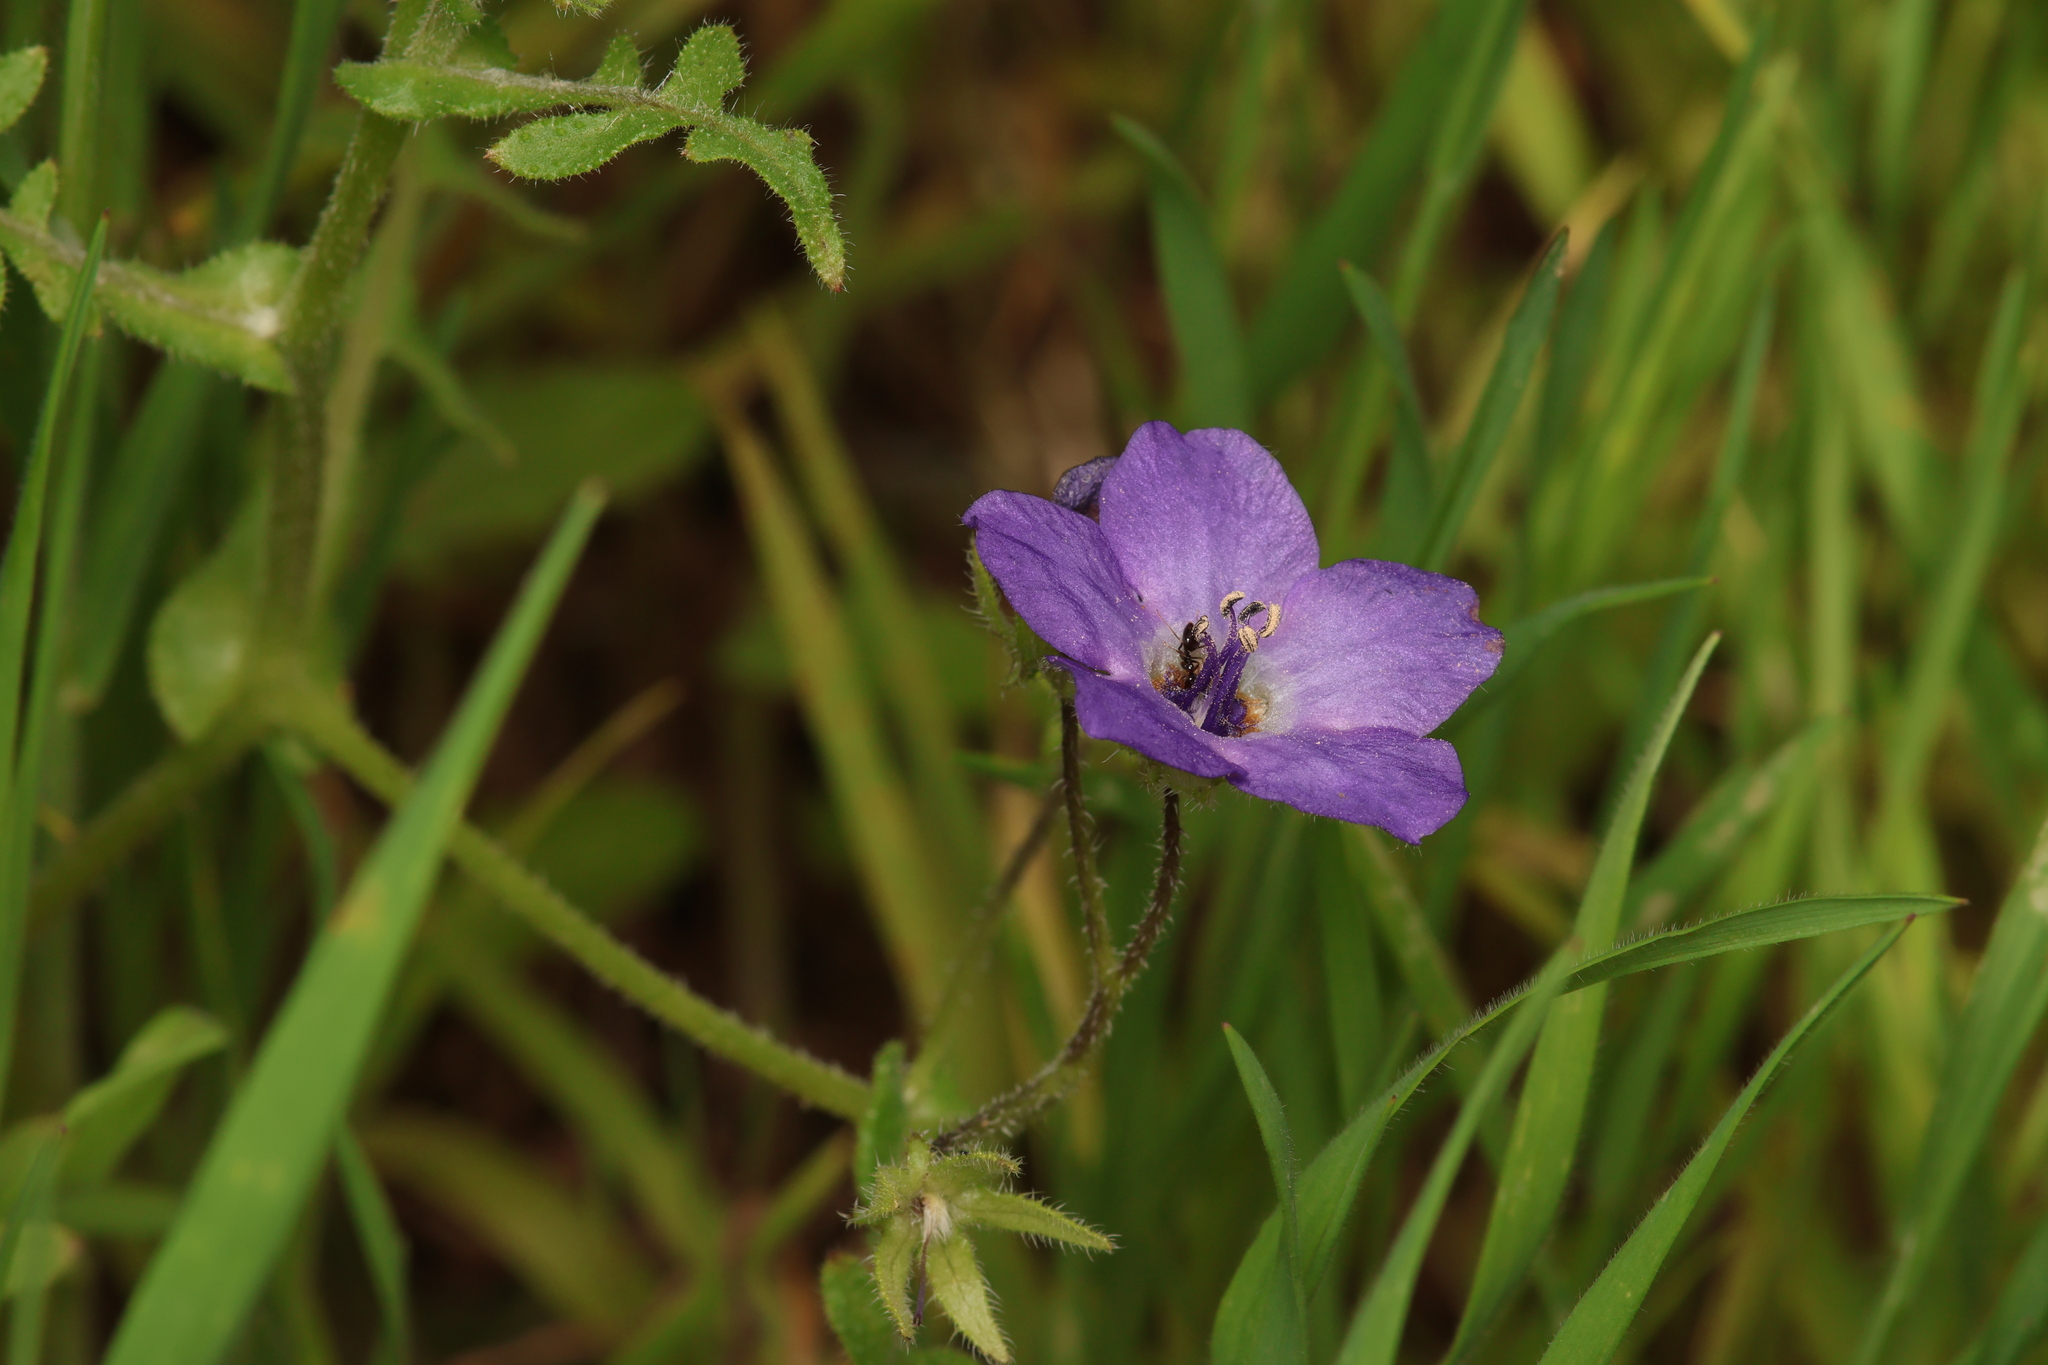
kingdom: Plantae
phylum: Tracheophyta
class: Magnoliopsida
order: Boraginales
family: Hydrophyllaceae
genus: Pholistoma
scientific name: Pholistoma auritum
